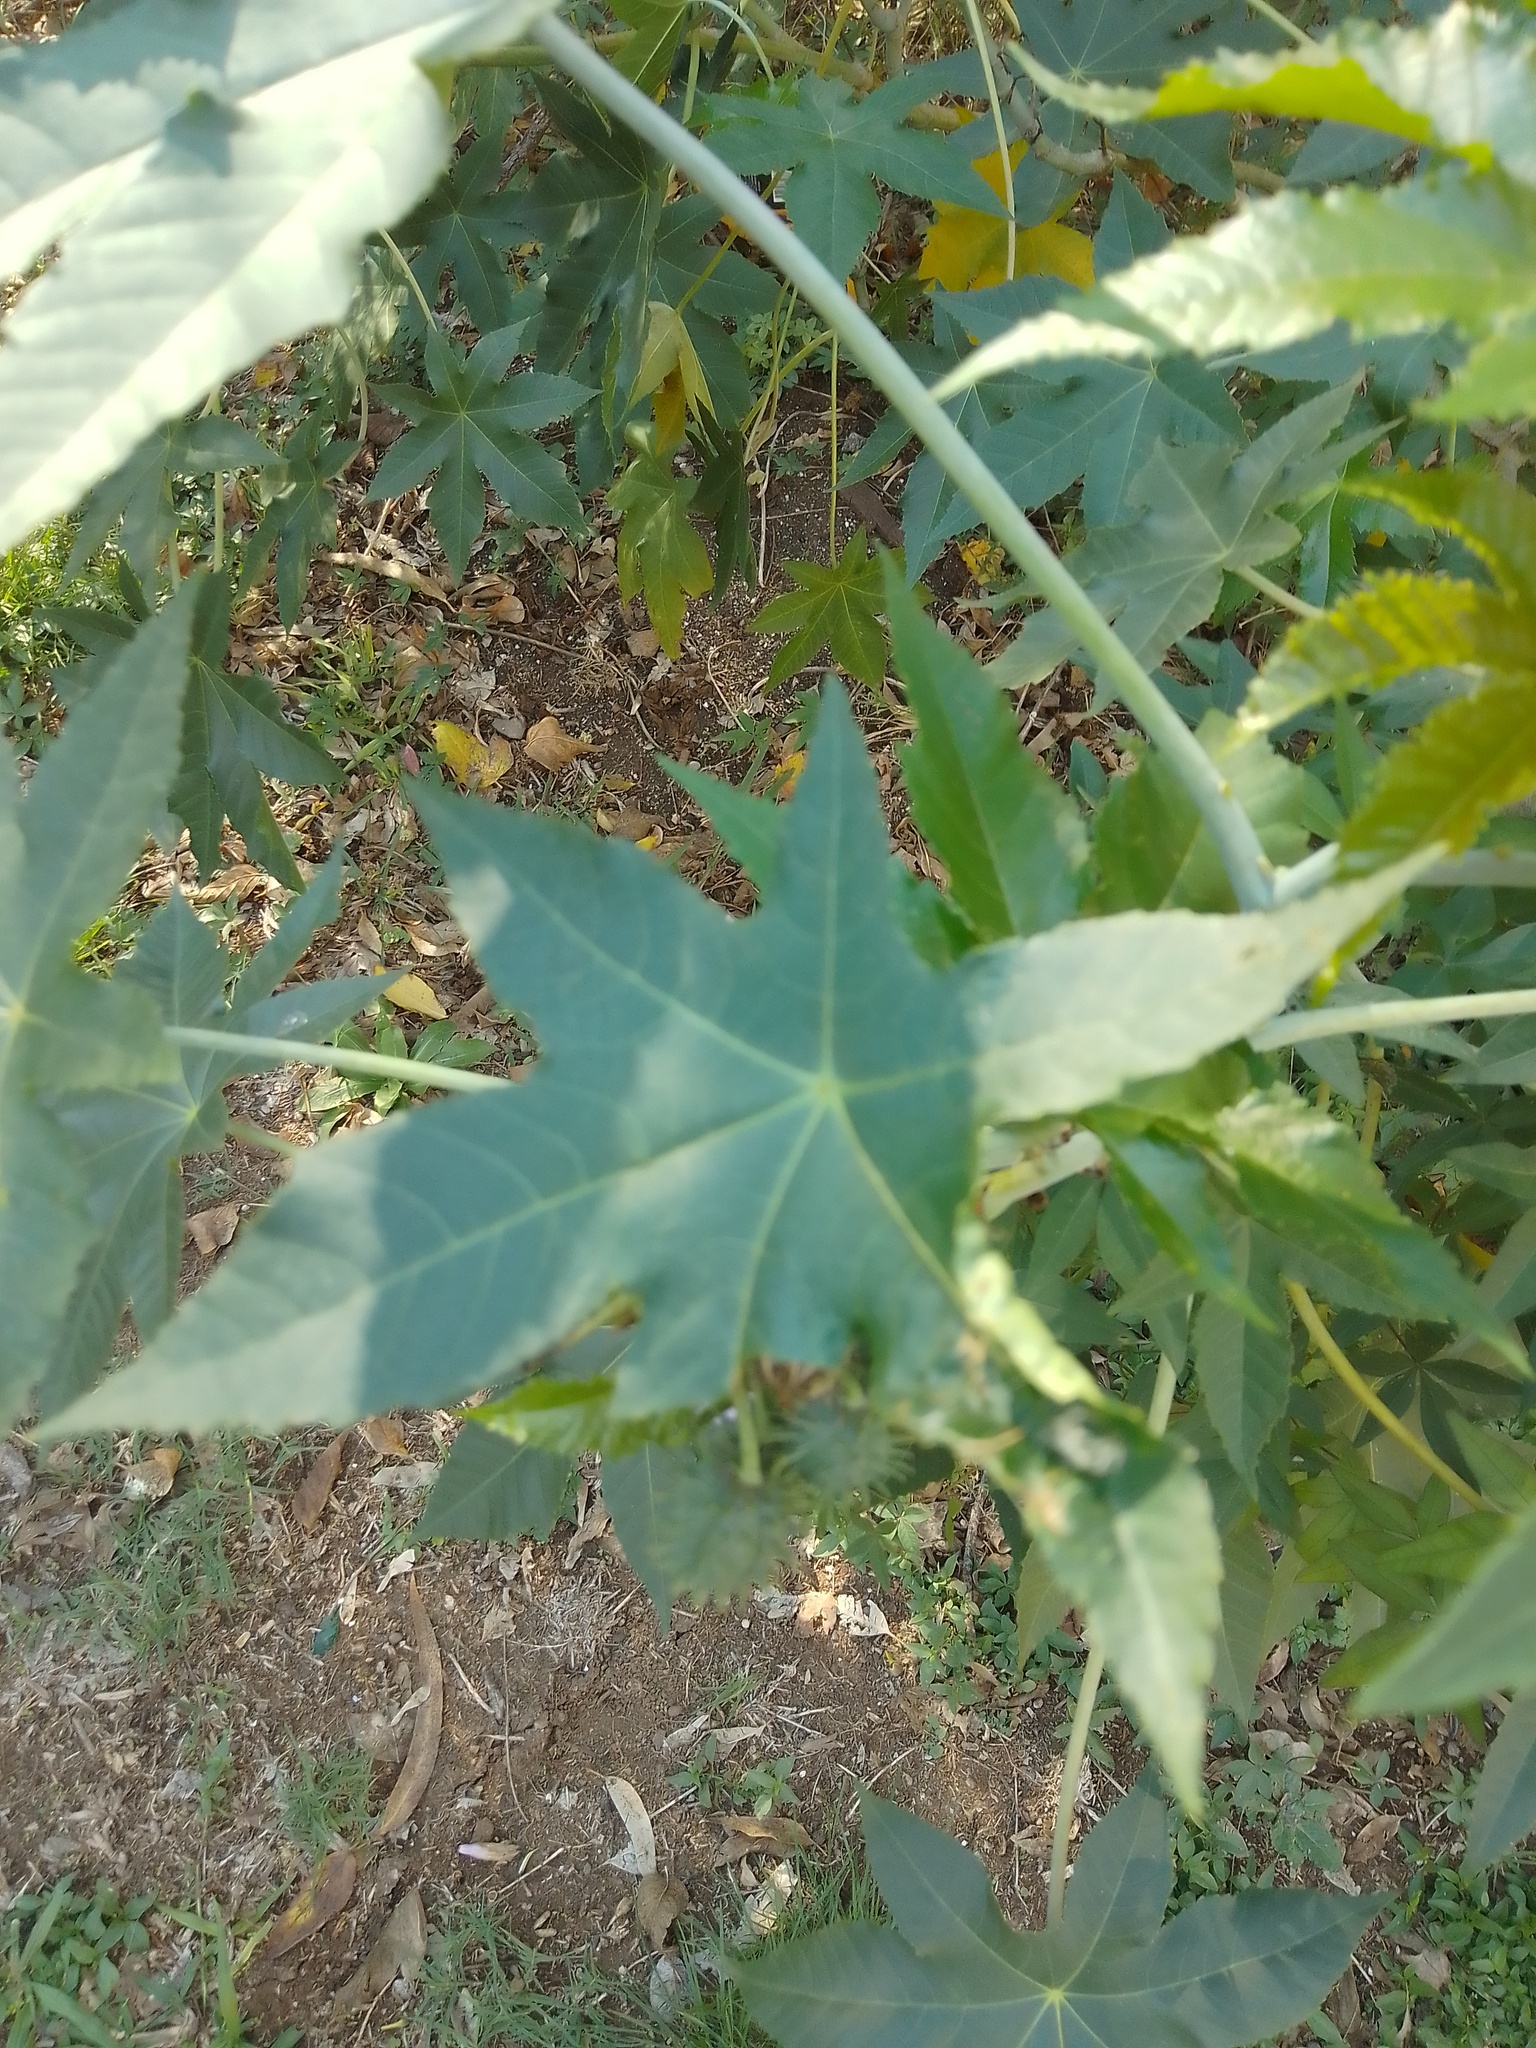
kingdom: Plantae
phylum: Tracheophyta
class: Magnoliopsida
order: Malpighiales
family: Euphorbiaceae
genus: Ricinus
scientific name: Ricinus communis
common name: Castor-oil-plant
